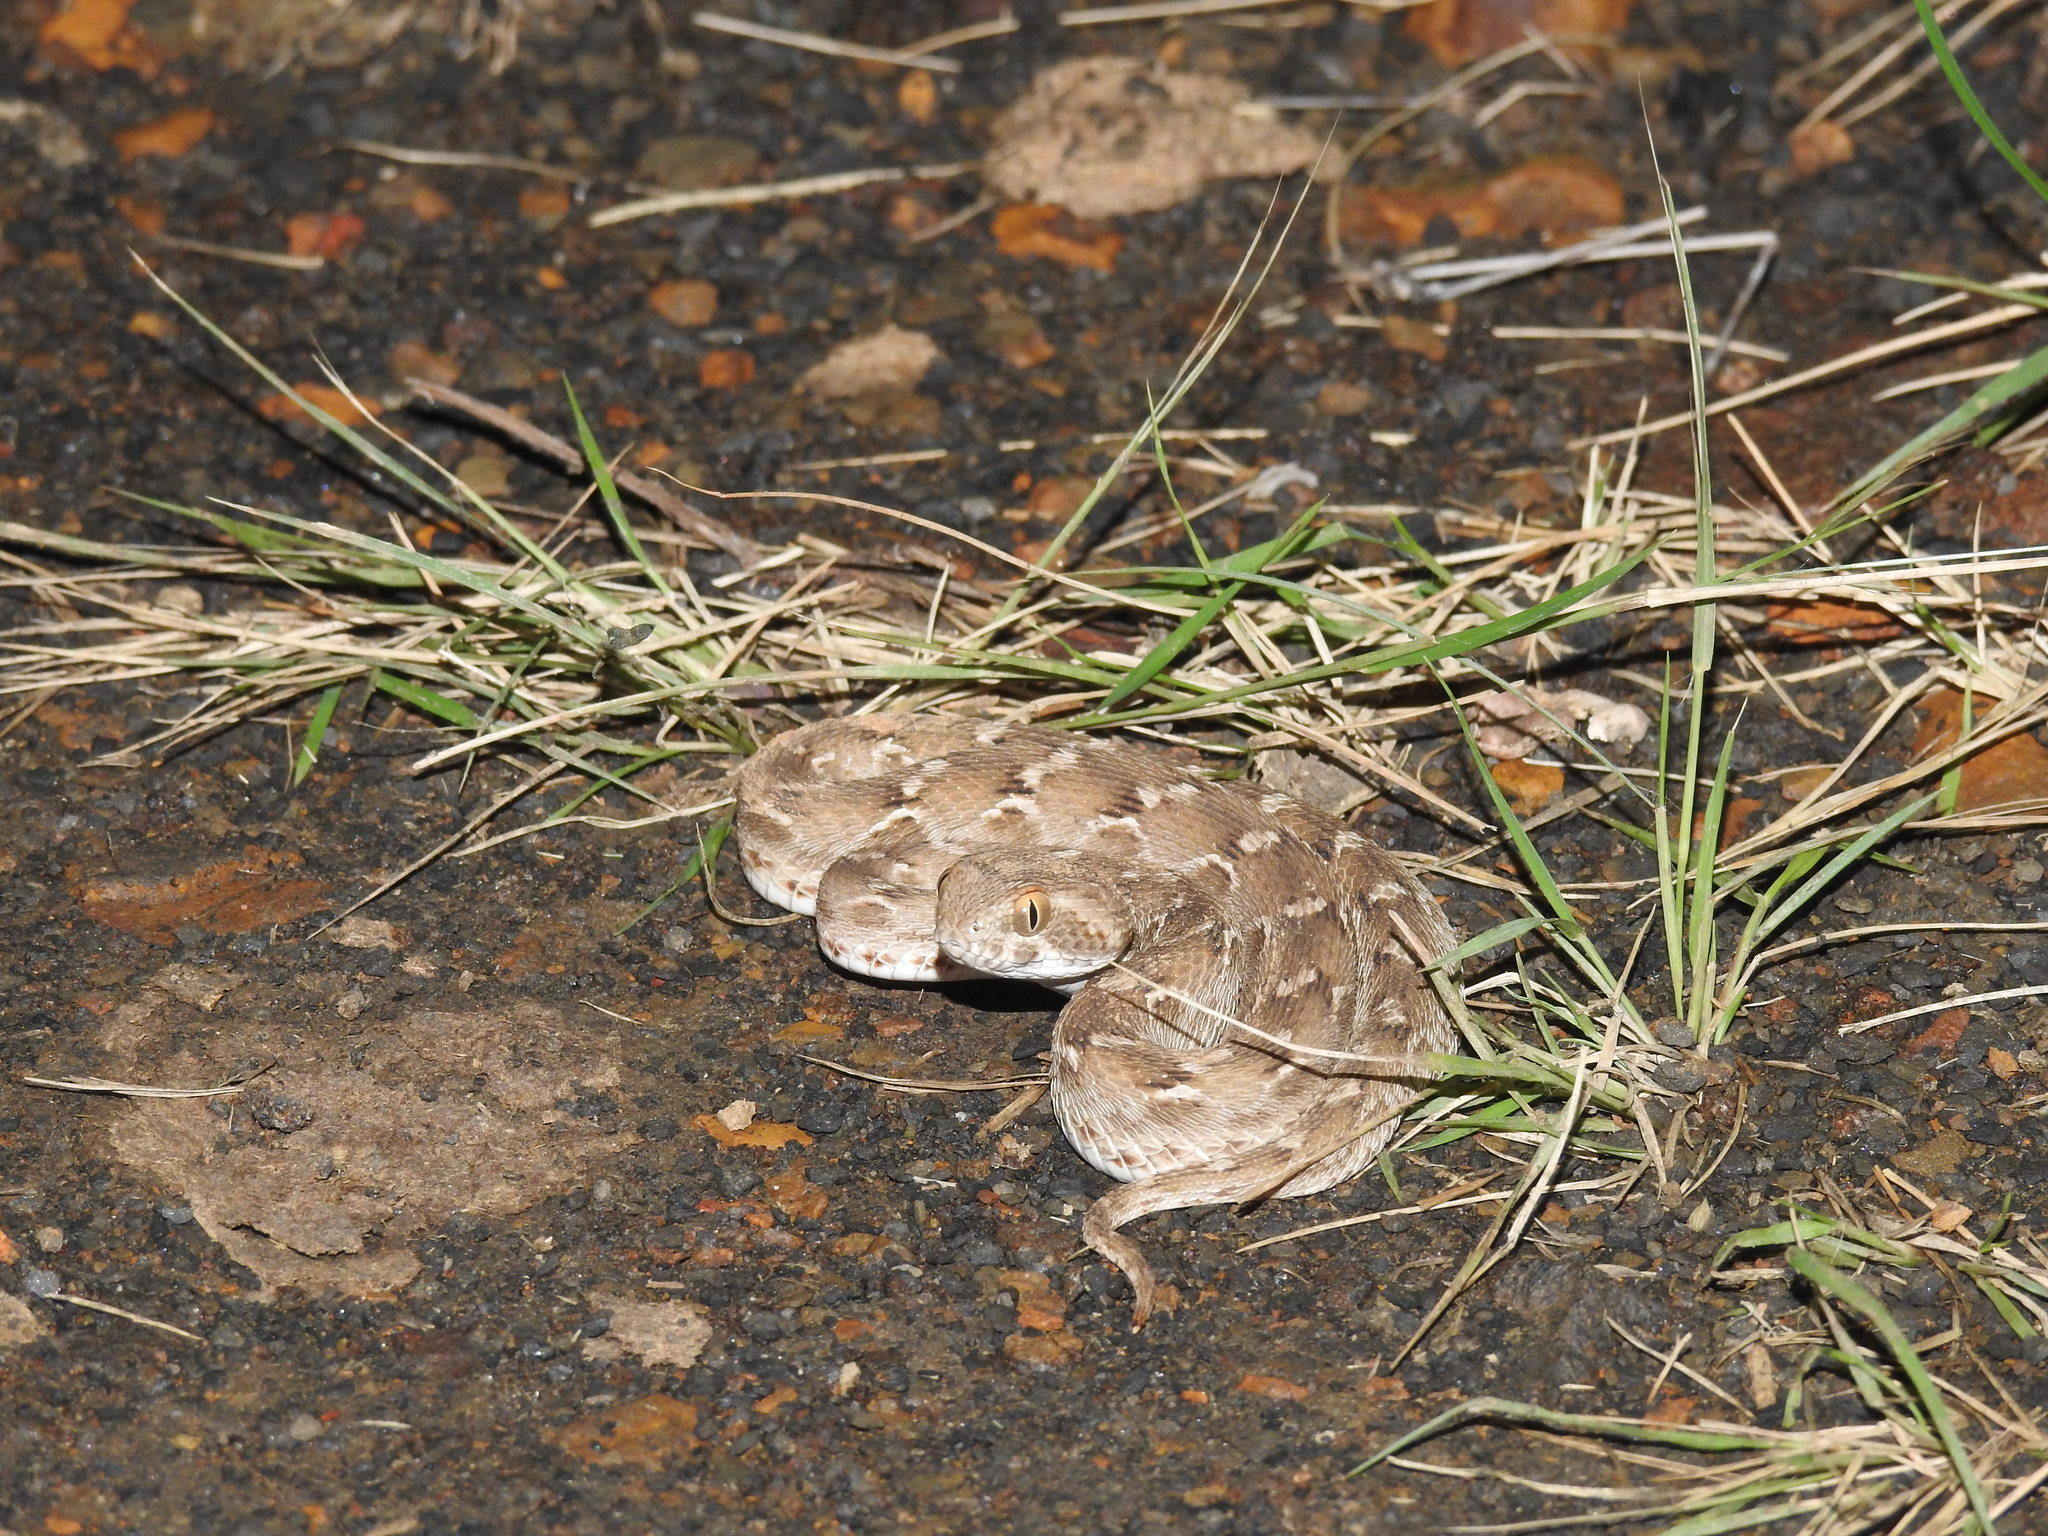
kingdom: Animalia
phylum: Chordata
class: Squamata
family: Viperidae
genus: Echis
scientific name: Echis carinatus
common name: Saw-scaled viper
